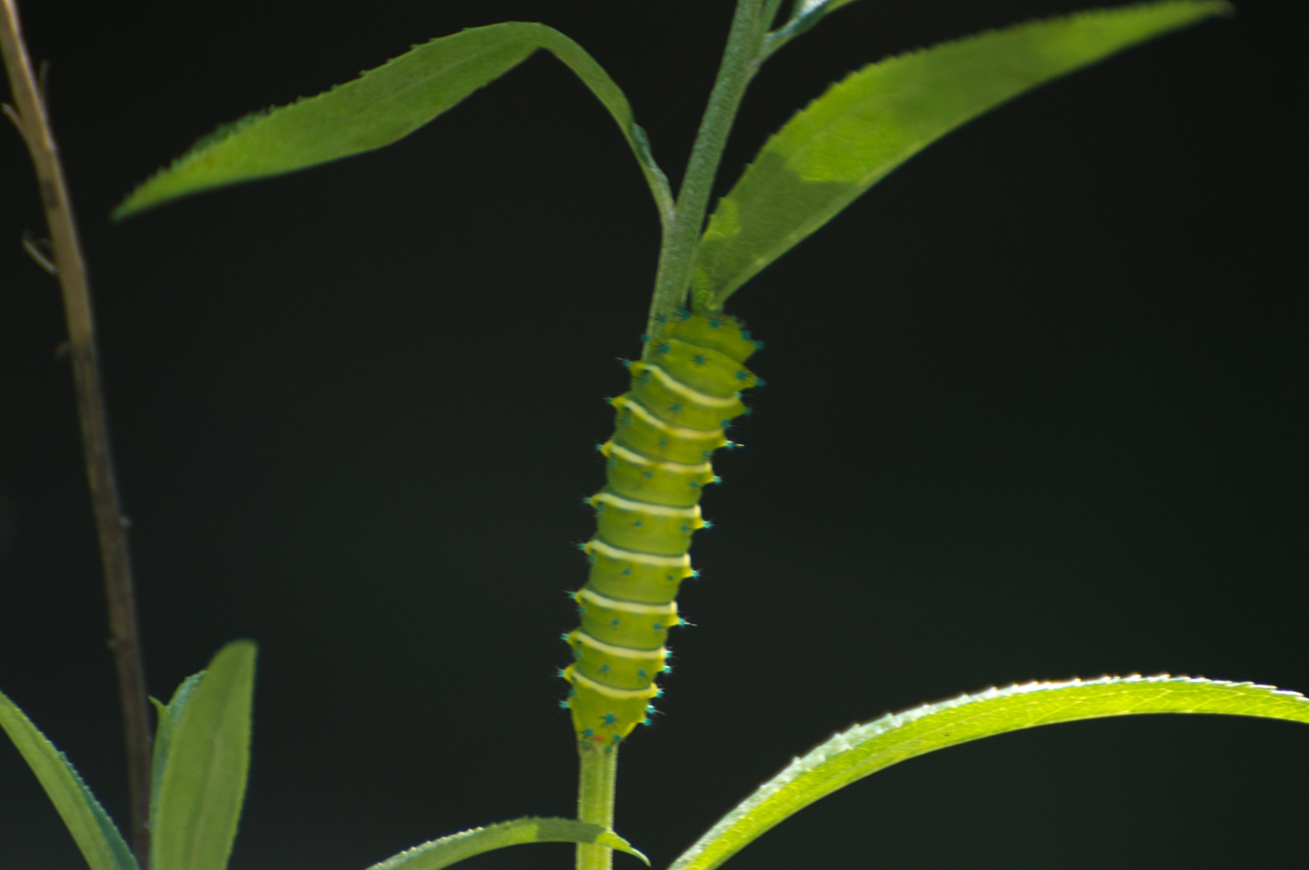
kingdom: Animalia
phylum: Arthropoda
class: Insecta
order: Lepidoptera
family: Saturniidae
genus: Rothschildia
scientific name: Rothschildia jacobaeae
